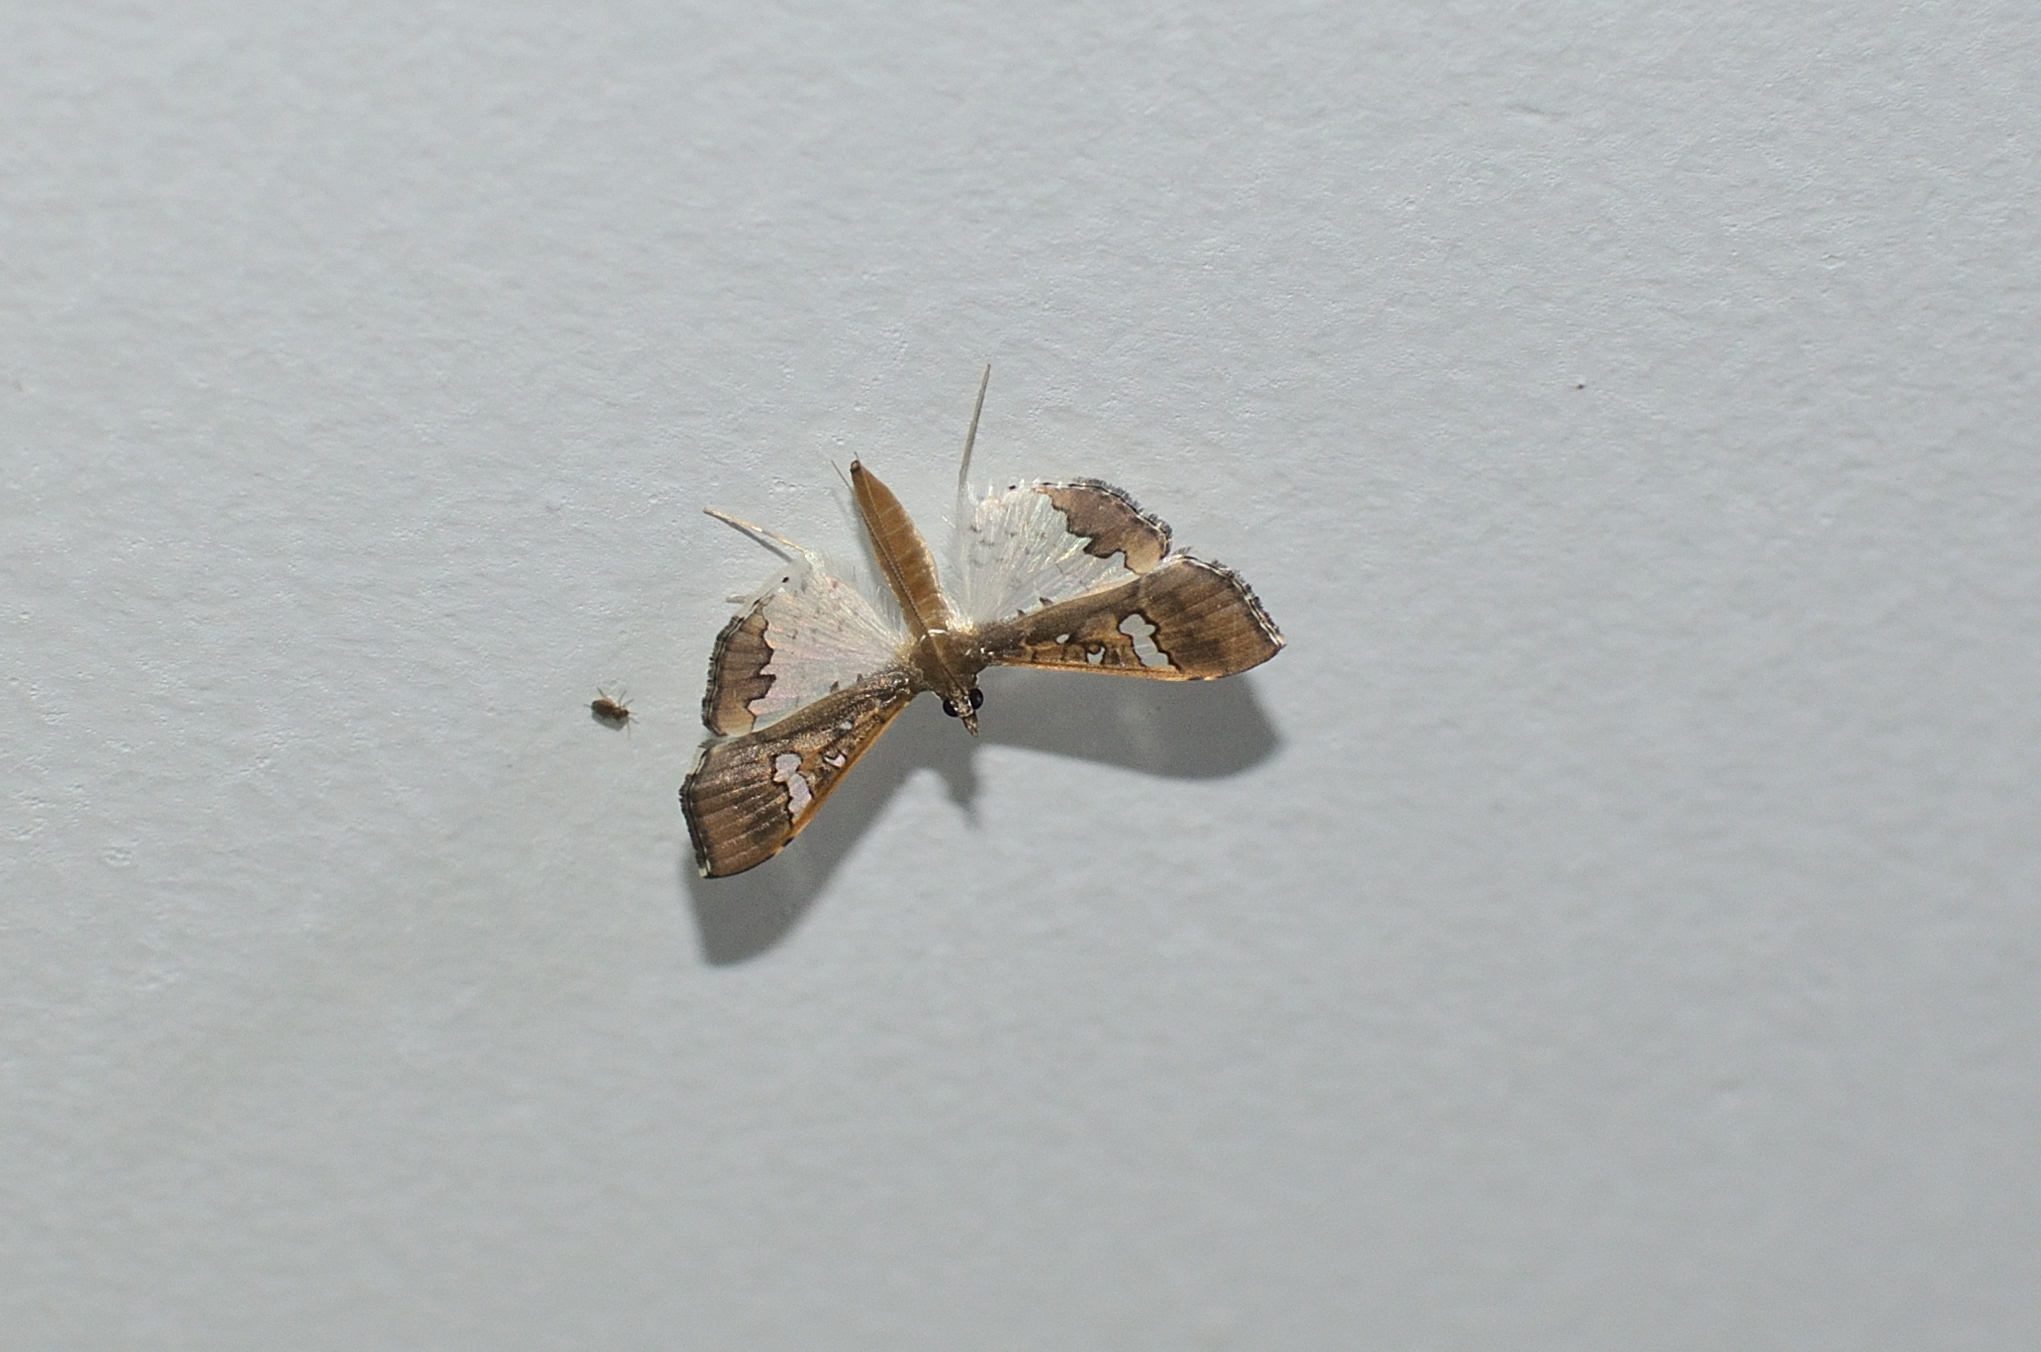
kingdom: Animalia
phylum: Arthropoda
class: Insecta
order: Lepidoptera
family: Crambidae
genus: Maruca
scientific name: Maruca vitrata
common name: Maruca pod borer
